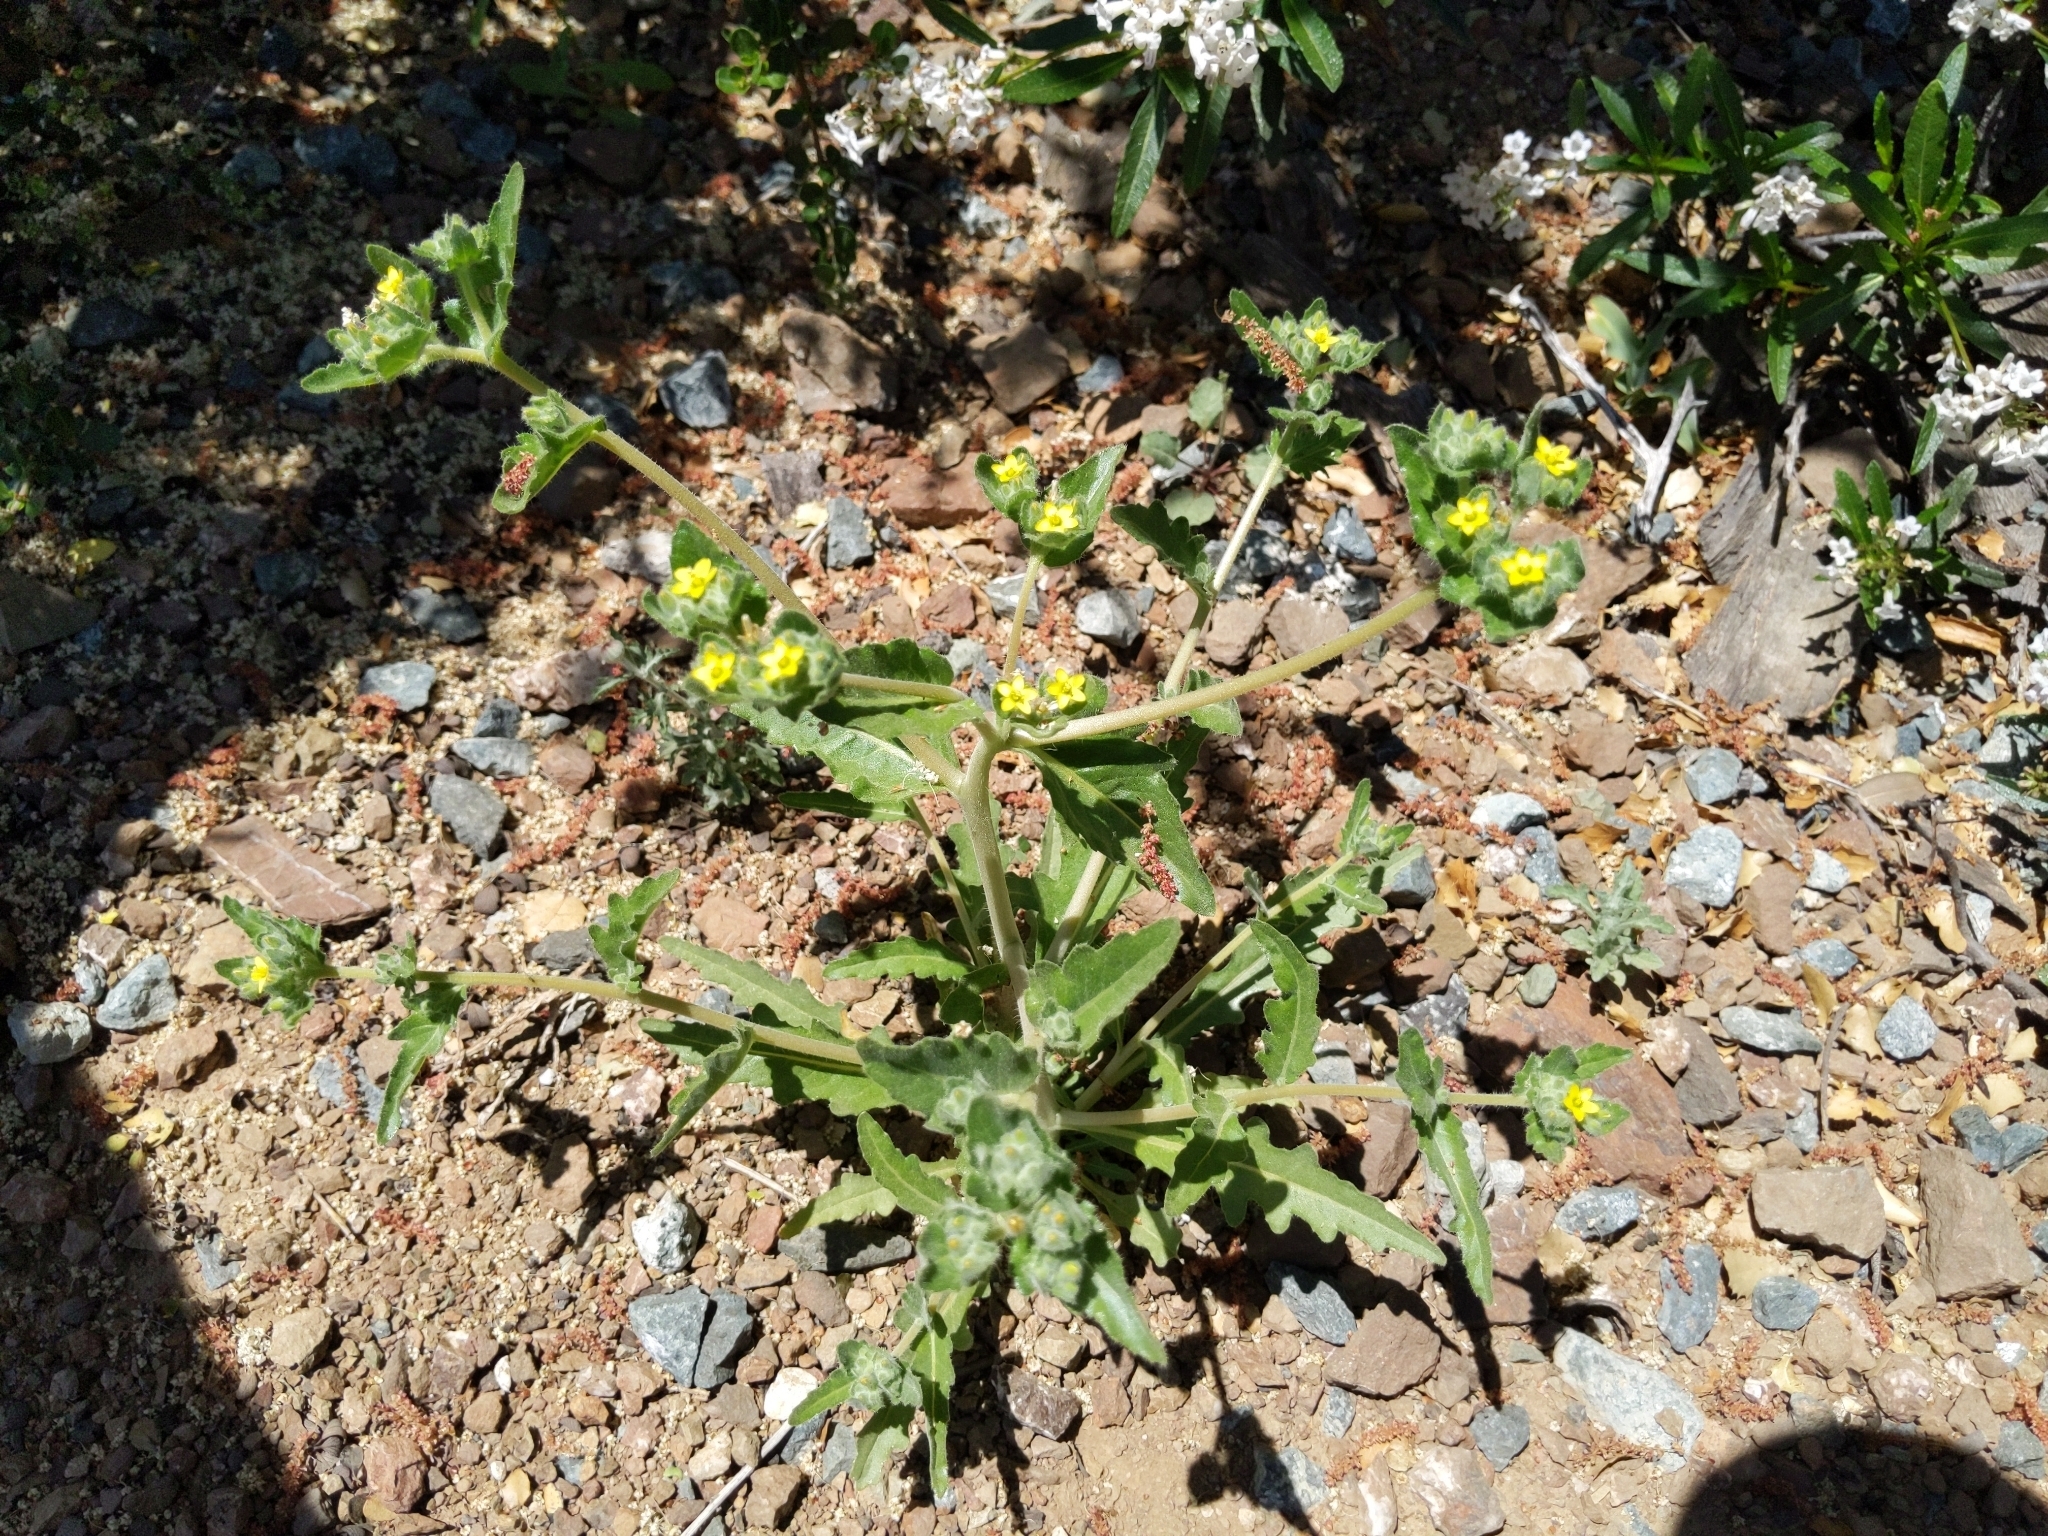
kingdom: Plantae
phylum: Tracheophyta
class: Magnoliopsida
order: Cornales
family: Loasaceae
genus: Mentzelia
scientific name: Mentzelia micrantha
